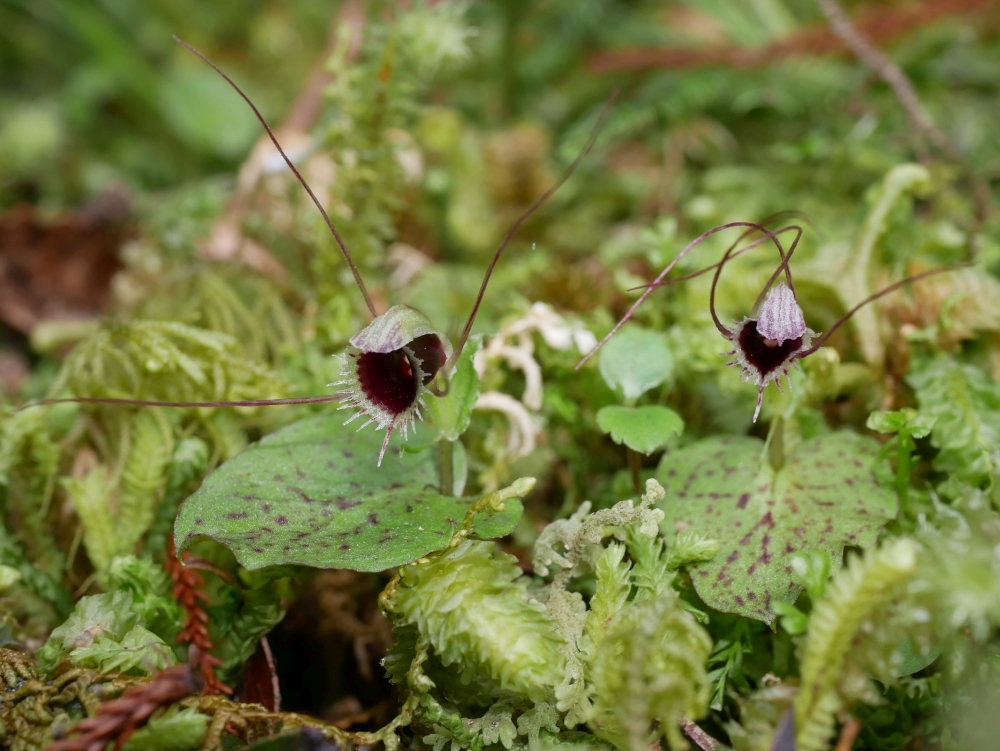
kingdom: Plantae
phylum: Tracheophyta
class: Liliopsida
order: Asparagales
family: Orchidaceae
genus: Corybas
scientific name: Corybas oblongus
